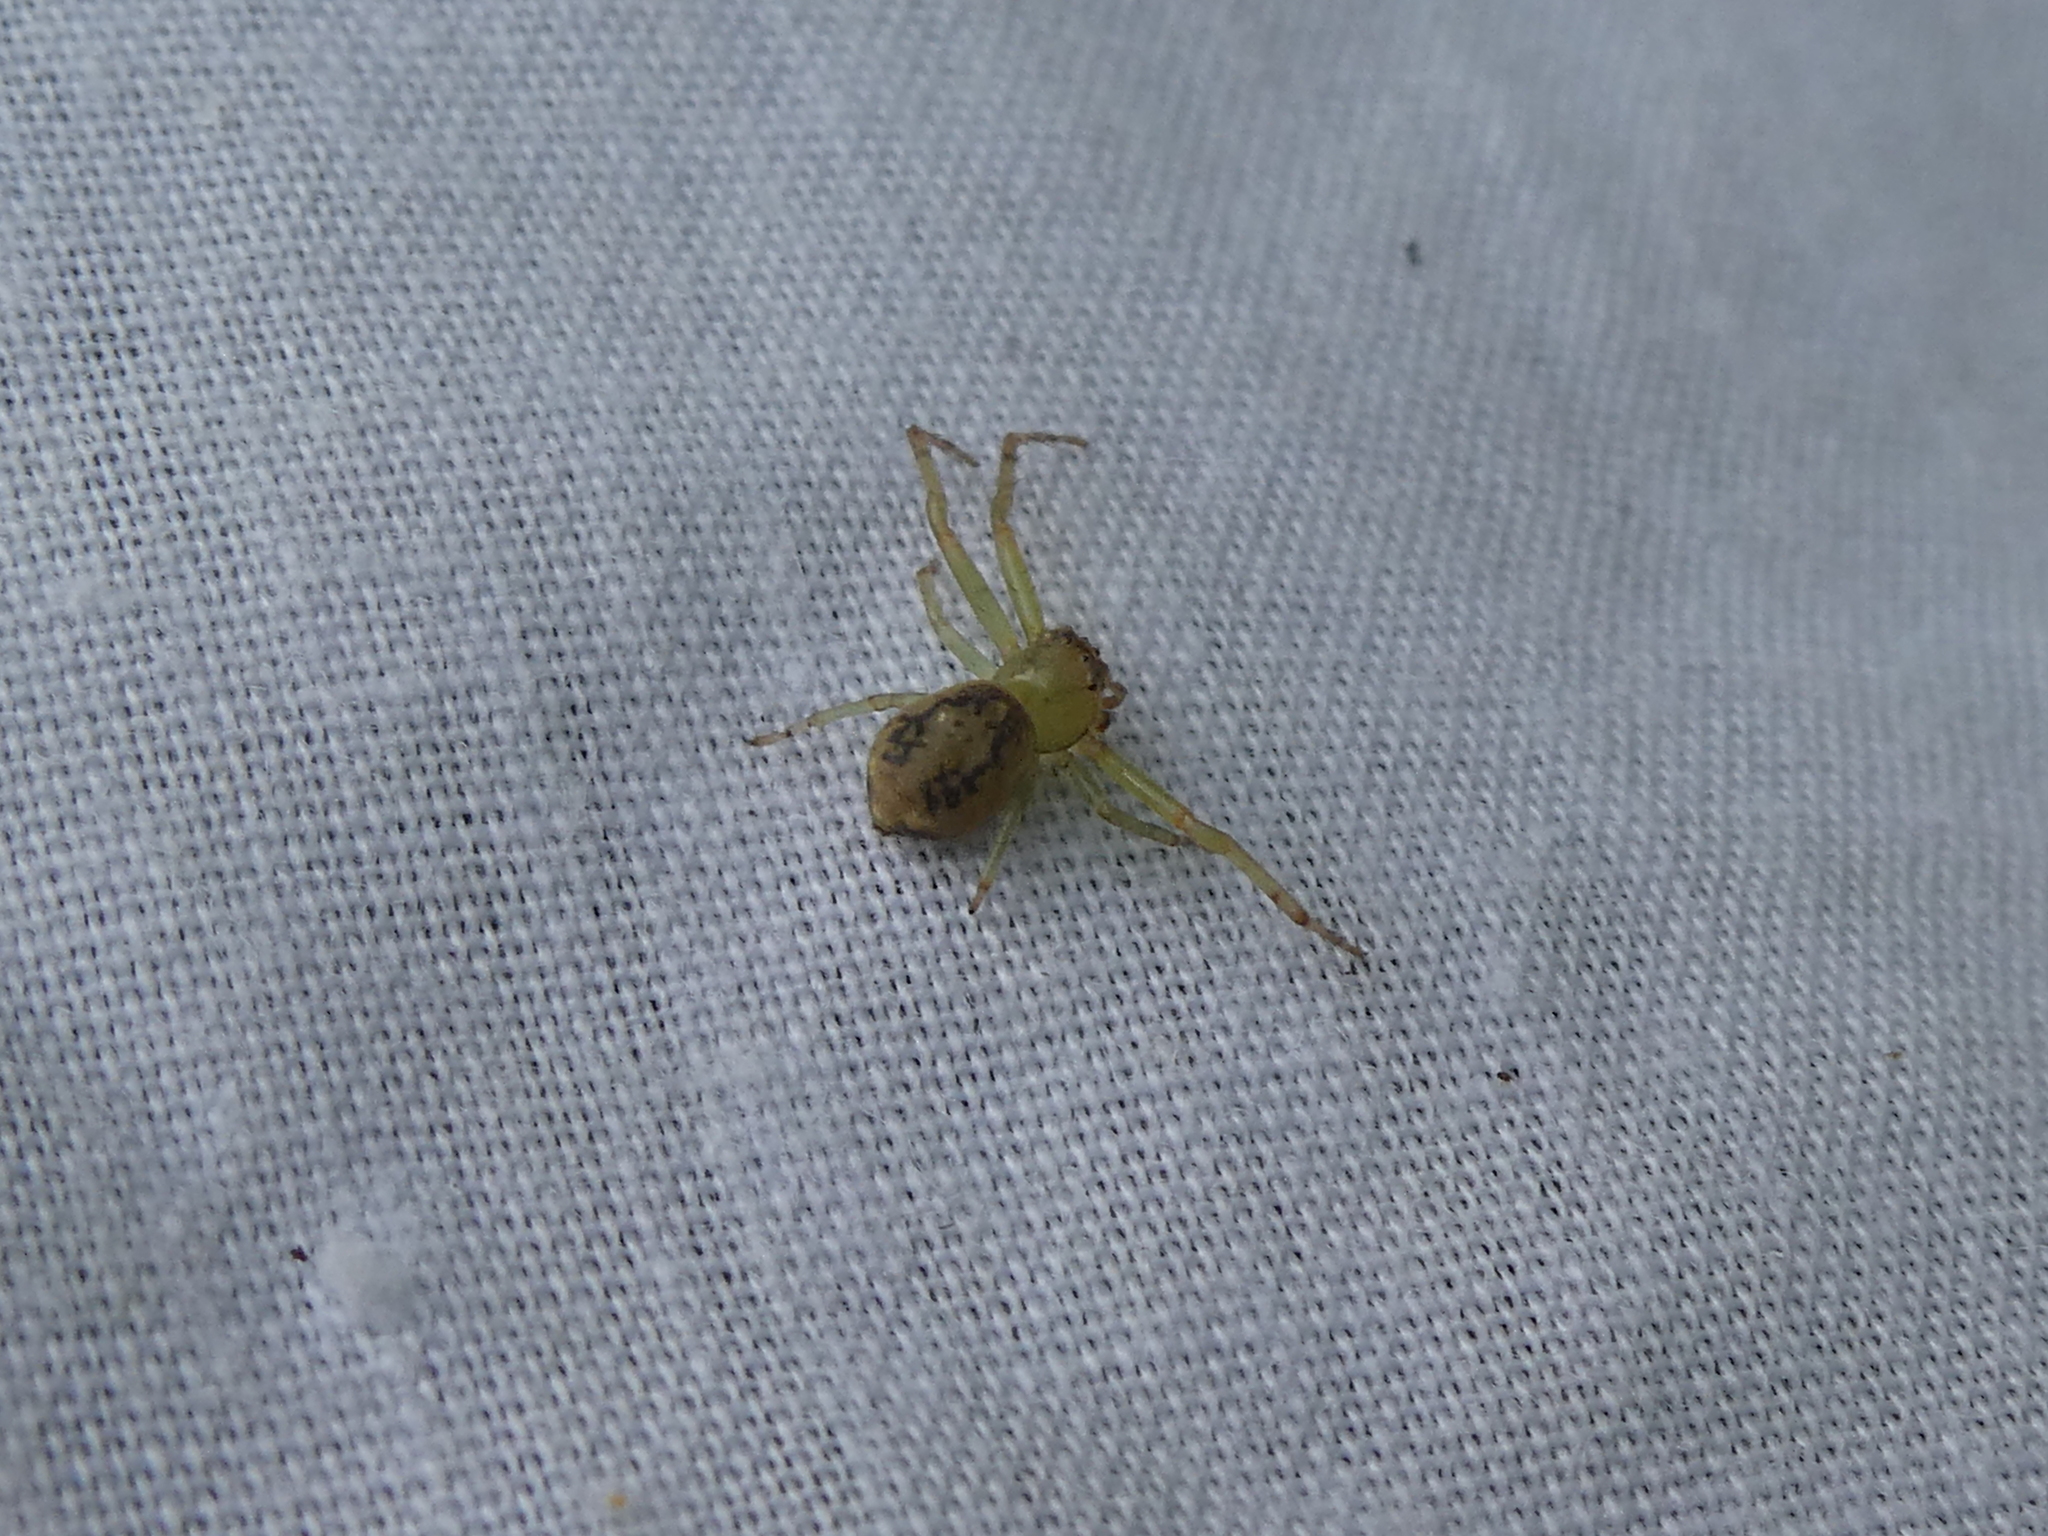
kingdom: Animalia
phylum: Arthropoda
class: Arachnida
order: Araneae
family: Thomisidae
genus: Diaea
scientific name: Diaea ambara
